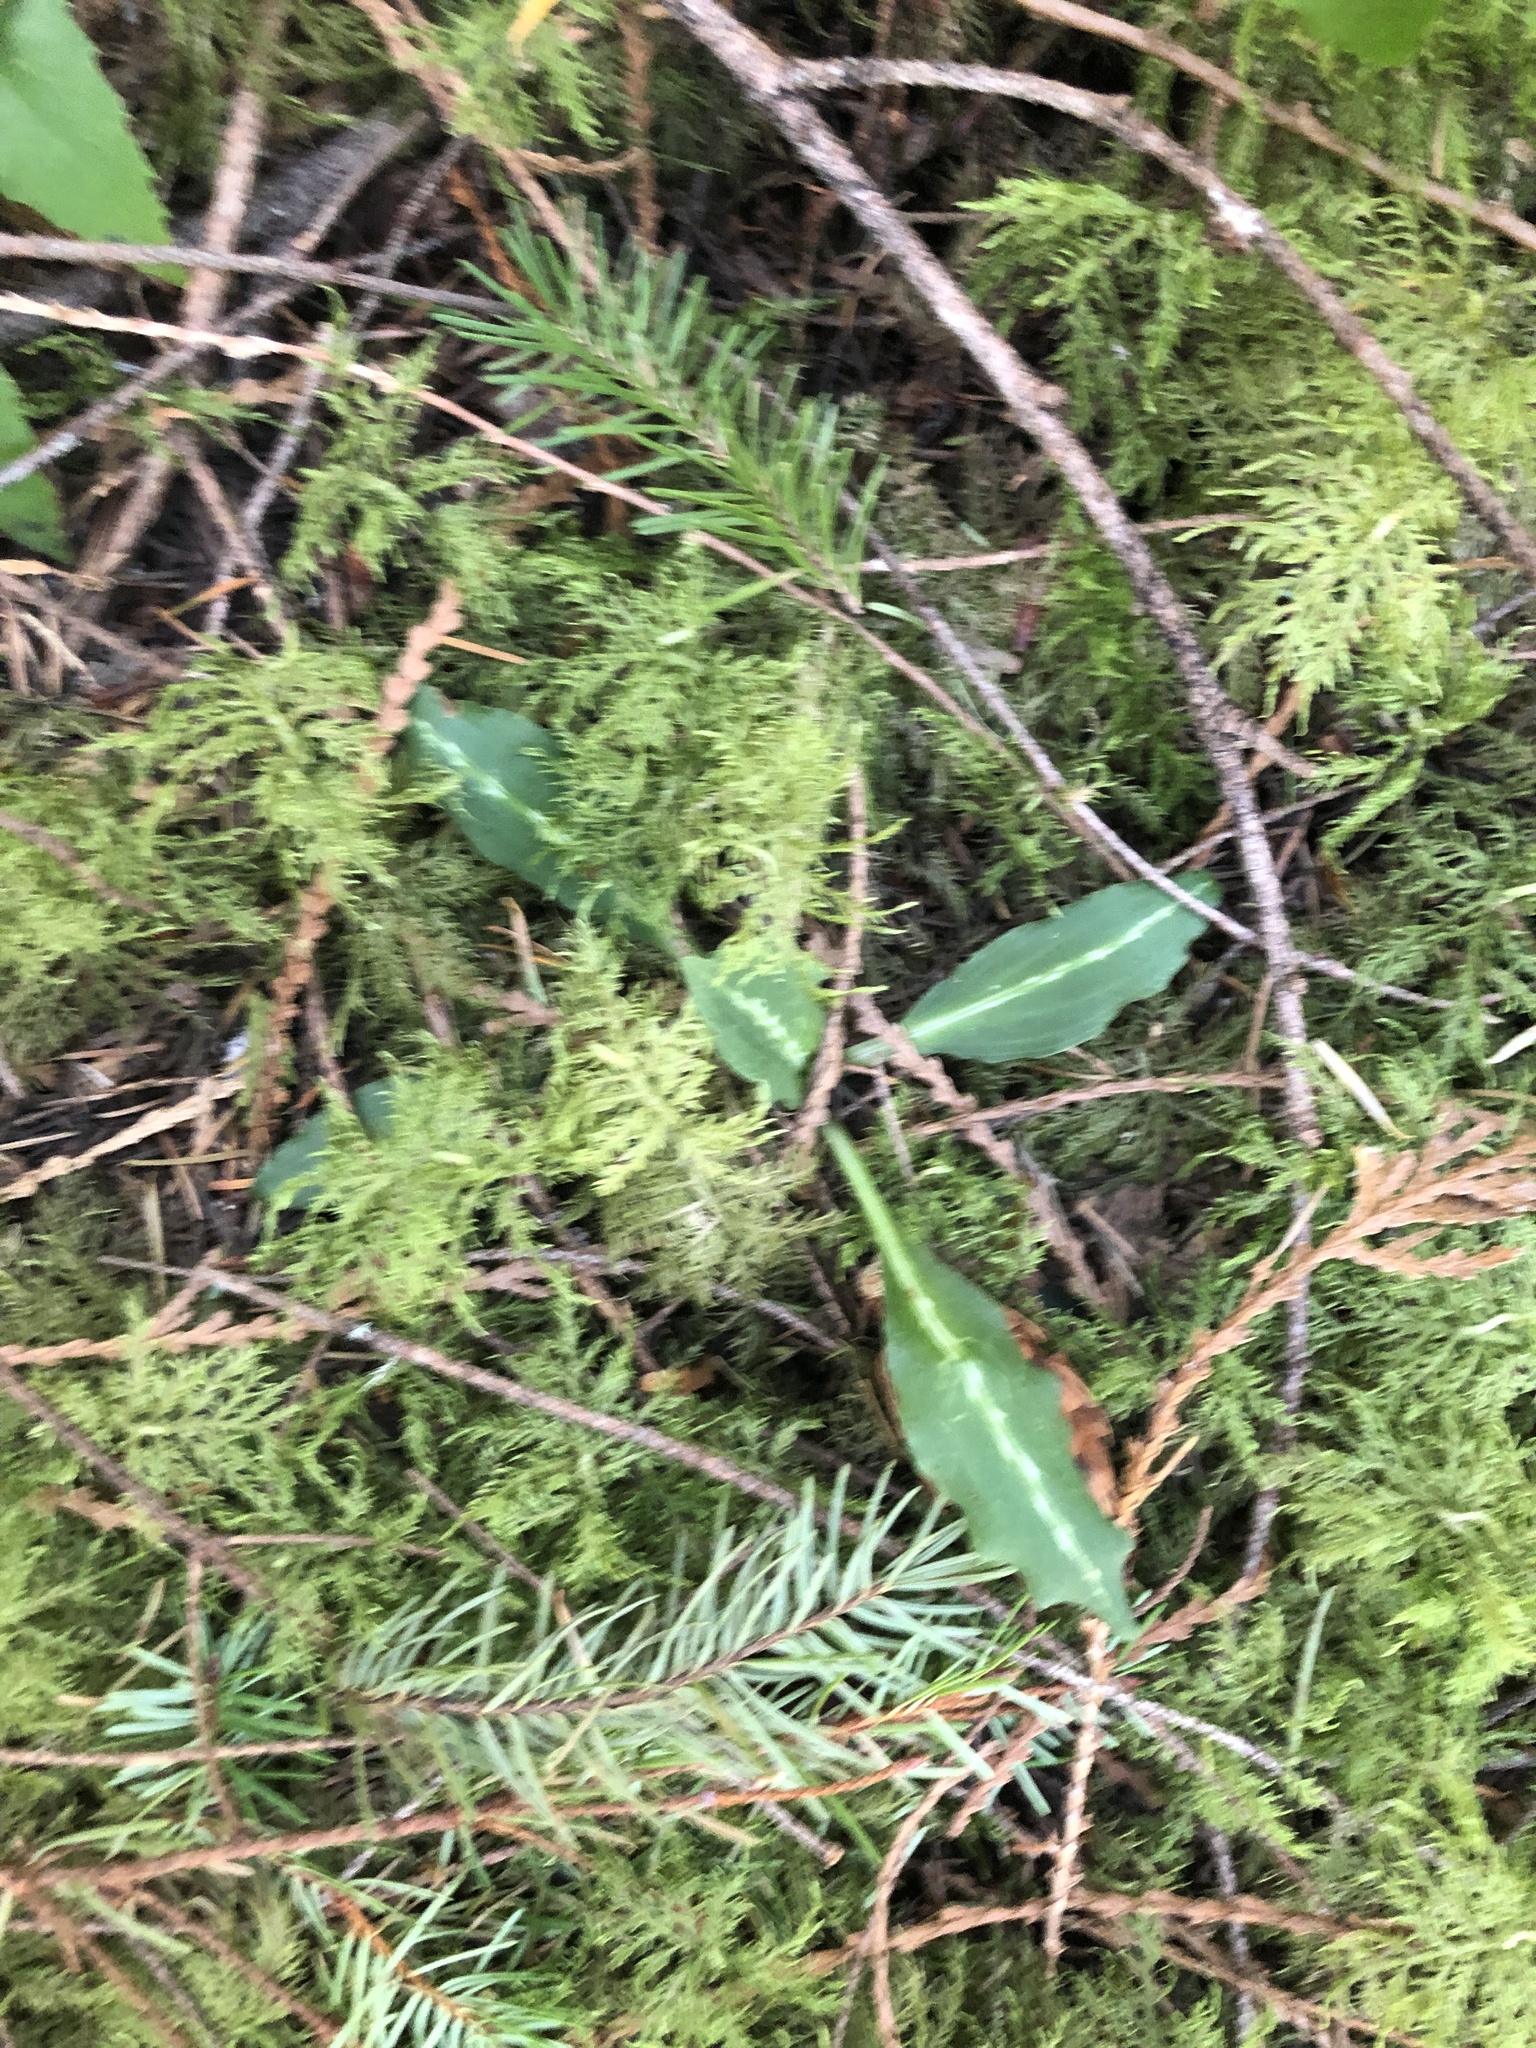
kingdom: Plantae
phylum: Tracheophyta
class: Liliopsida
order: Asparagales
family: Orchidaceae
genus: Goodyera
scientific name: Goodyera oblongifolia
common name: Giant rattlesnake-plantain
